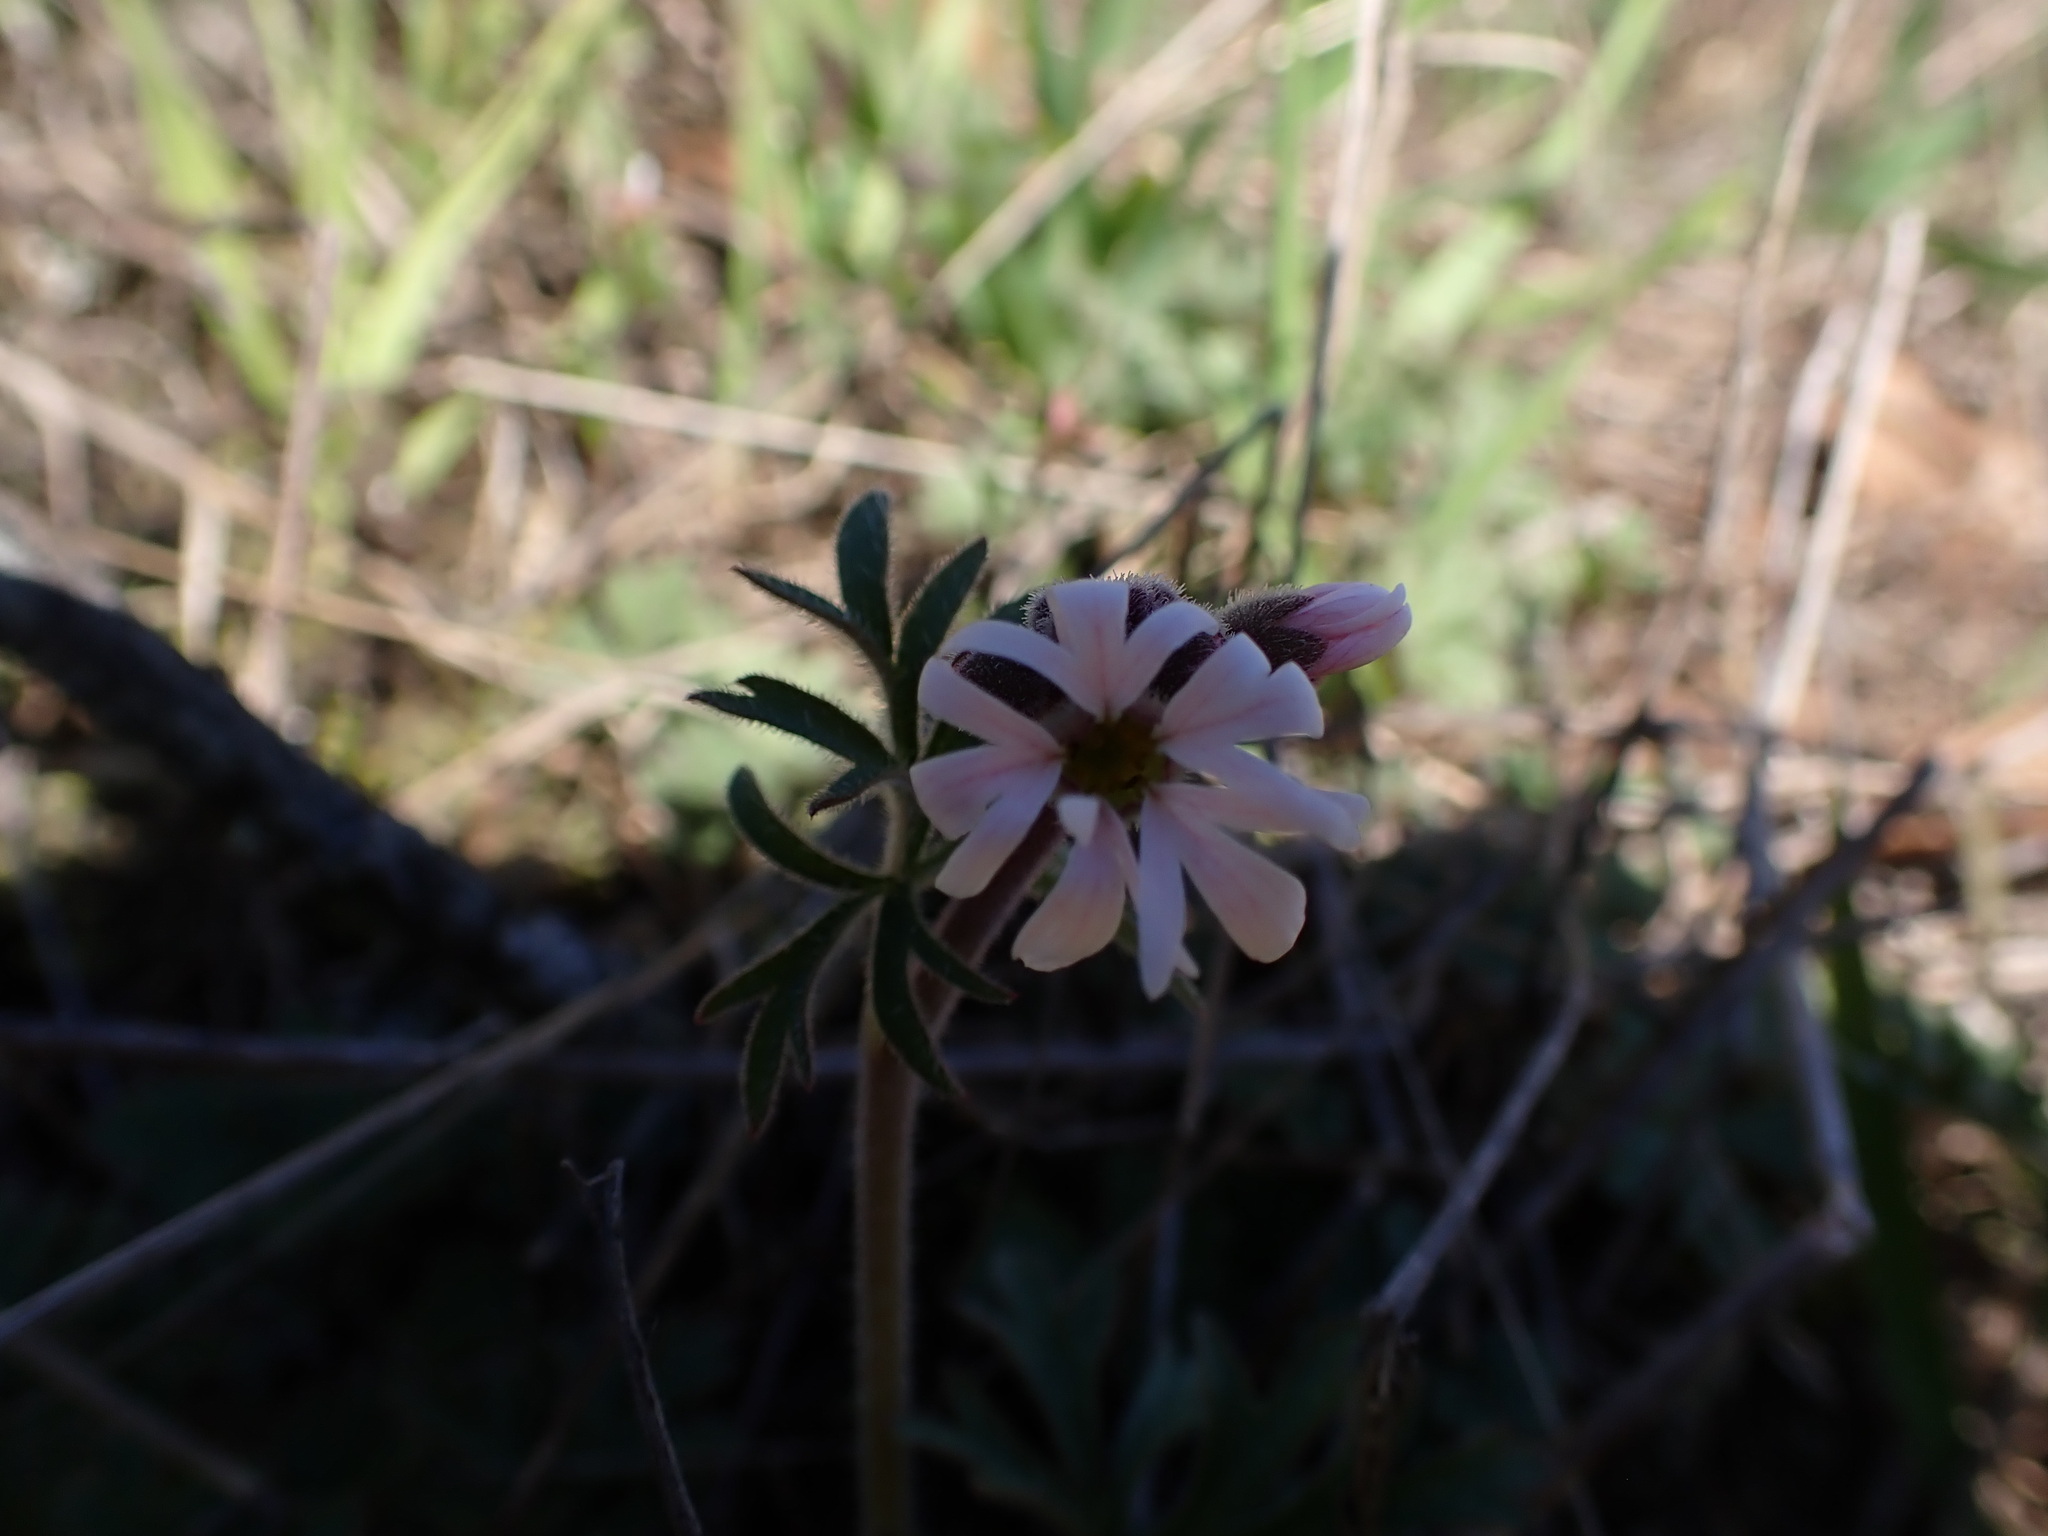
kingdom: Plantae
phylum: Tracheophyta
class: Magnoliopsida
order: Saxifragales
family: Saxifragaceae
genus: Lithophragma
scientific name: Lithophragma parviflorum
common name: Small-flowered fringe-cup
